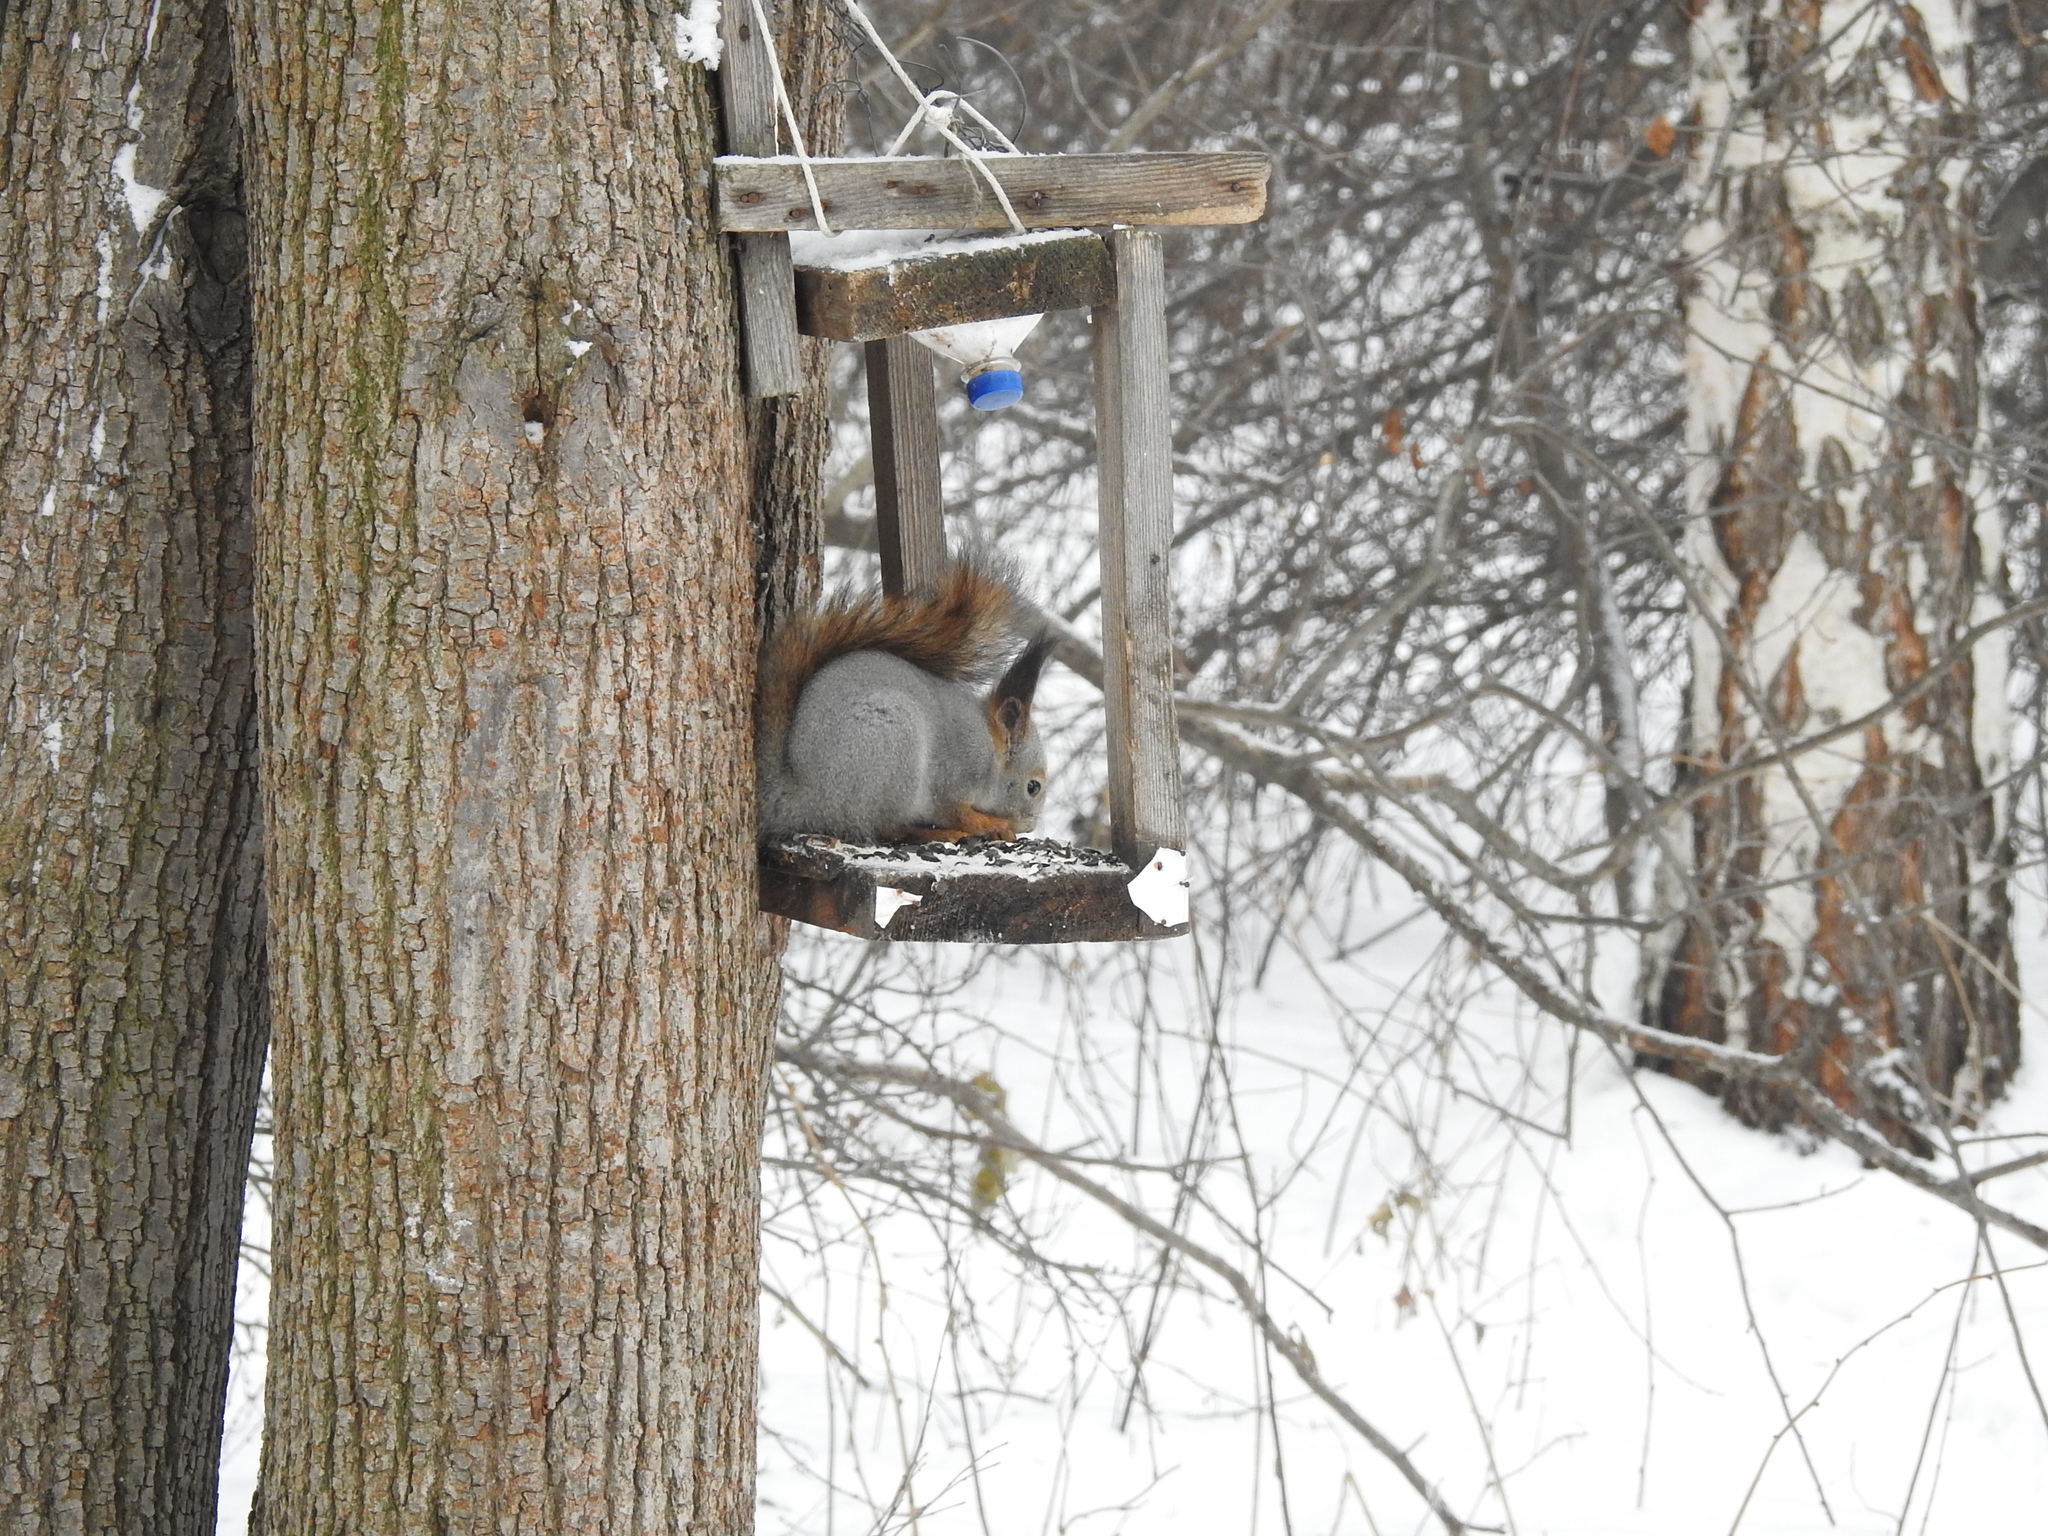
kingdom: Animalia
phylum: Chordata
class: Mammalia
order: Rodentia
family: Sciuridae
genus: Sciurus
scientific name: Sciurus vulgaris
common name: Eurasian red squirrel
